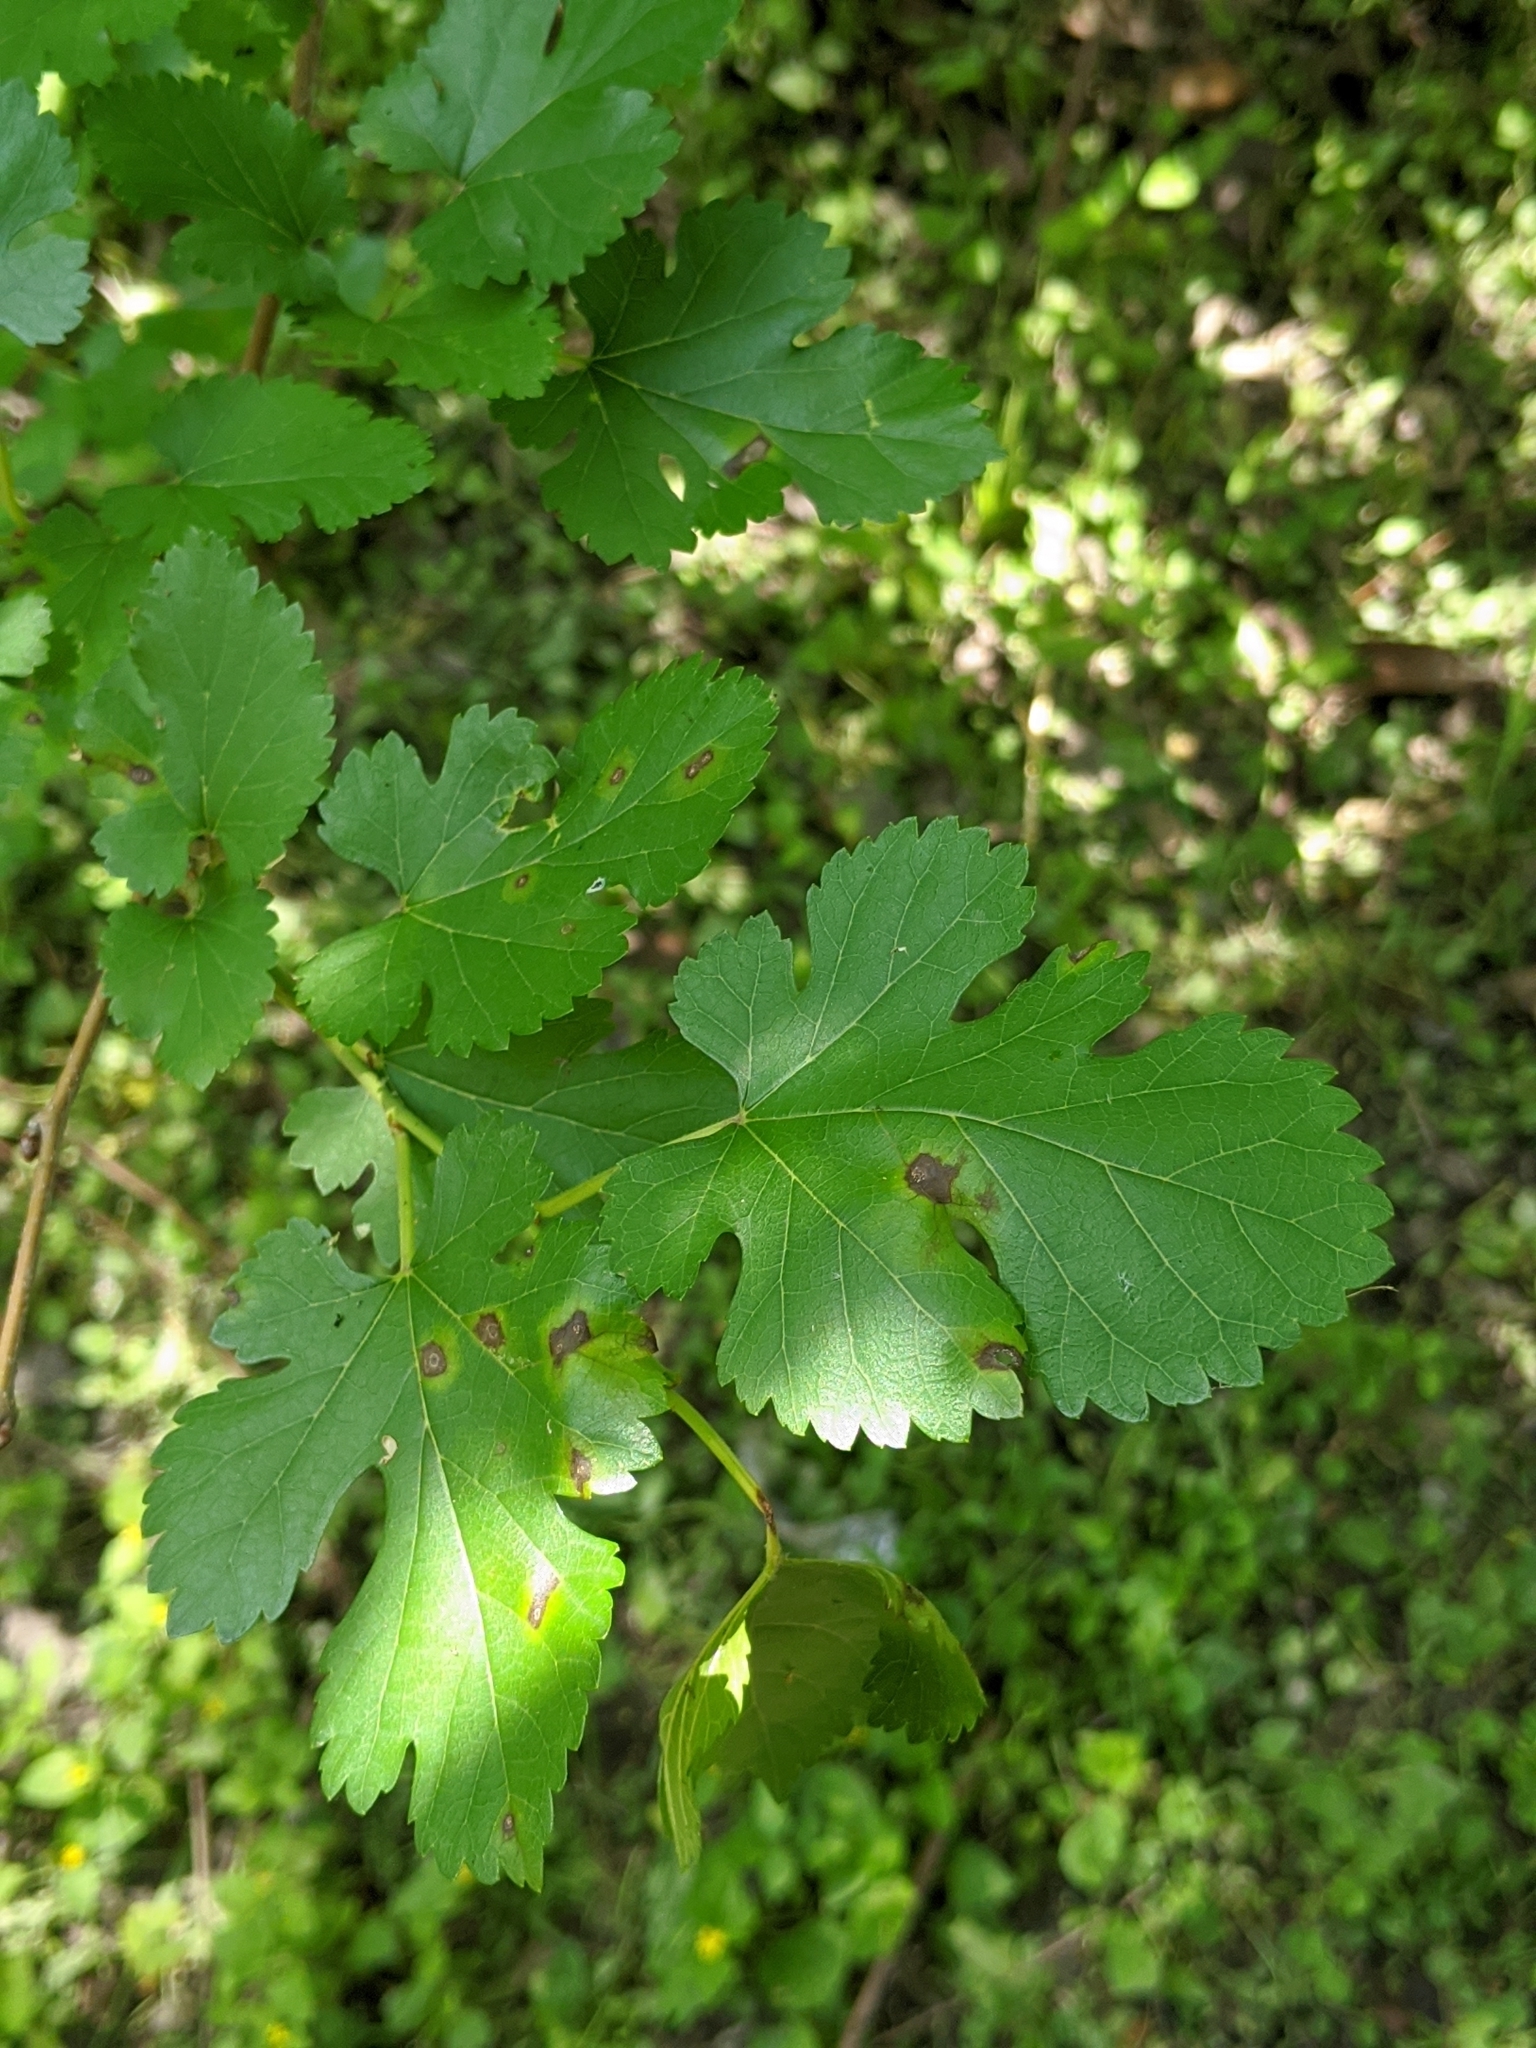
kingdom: Plantae
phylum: Tracheophyta
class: Magnoliopsida
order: Rosales
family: Moraceae
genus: Morus
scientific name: Morus alba
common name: White mulberry
